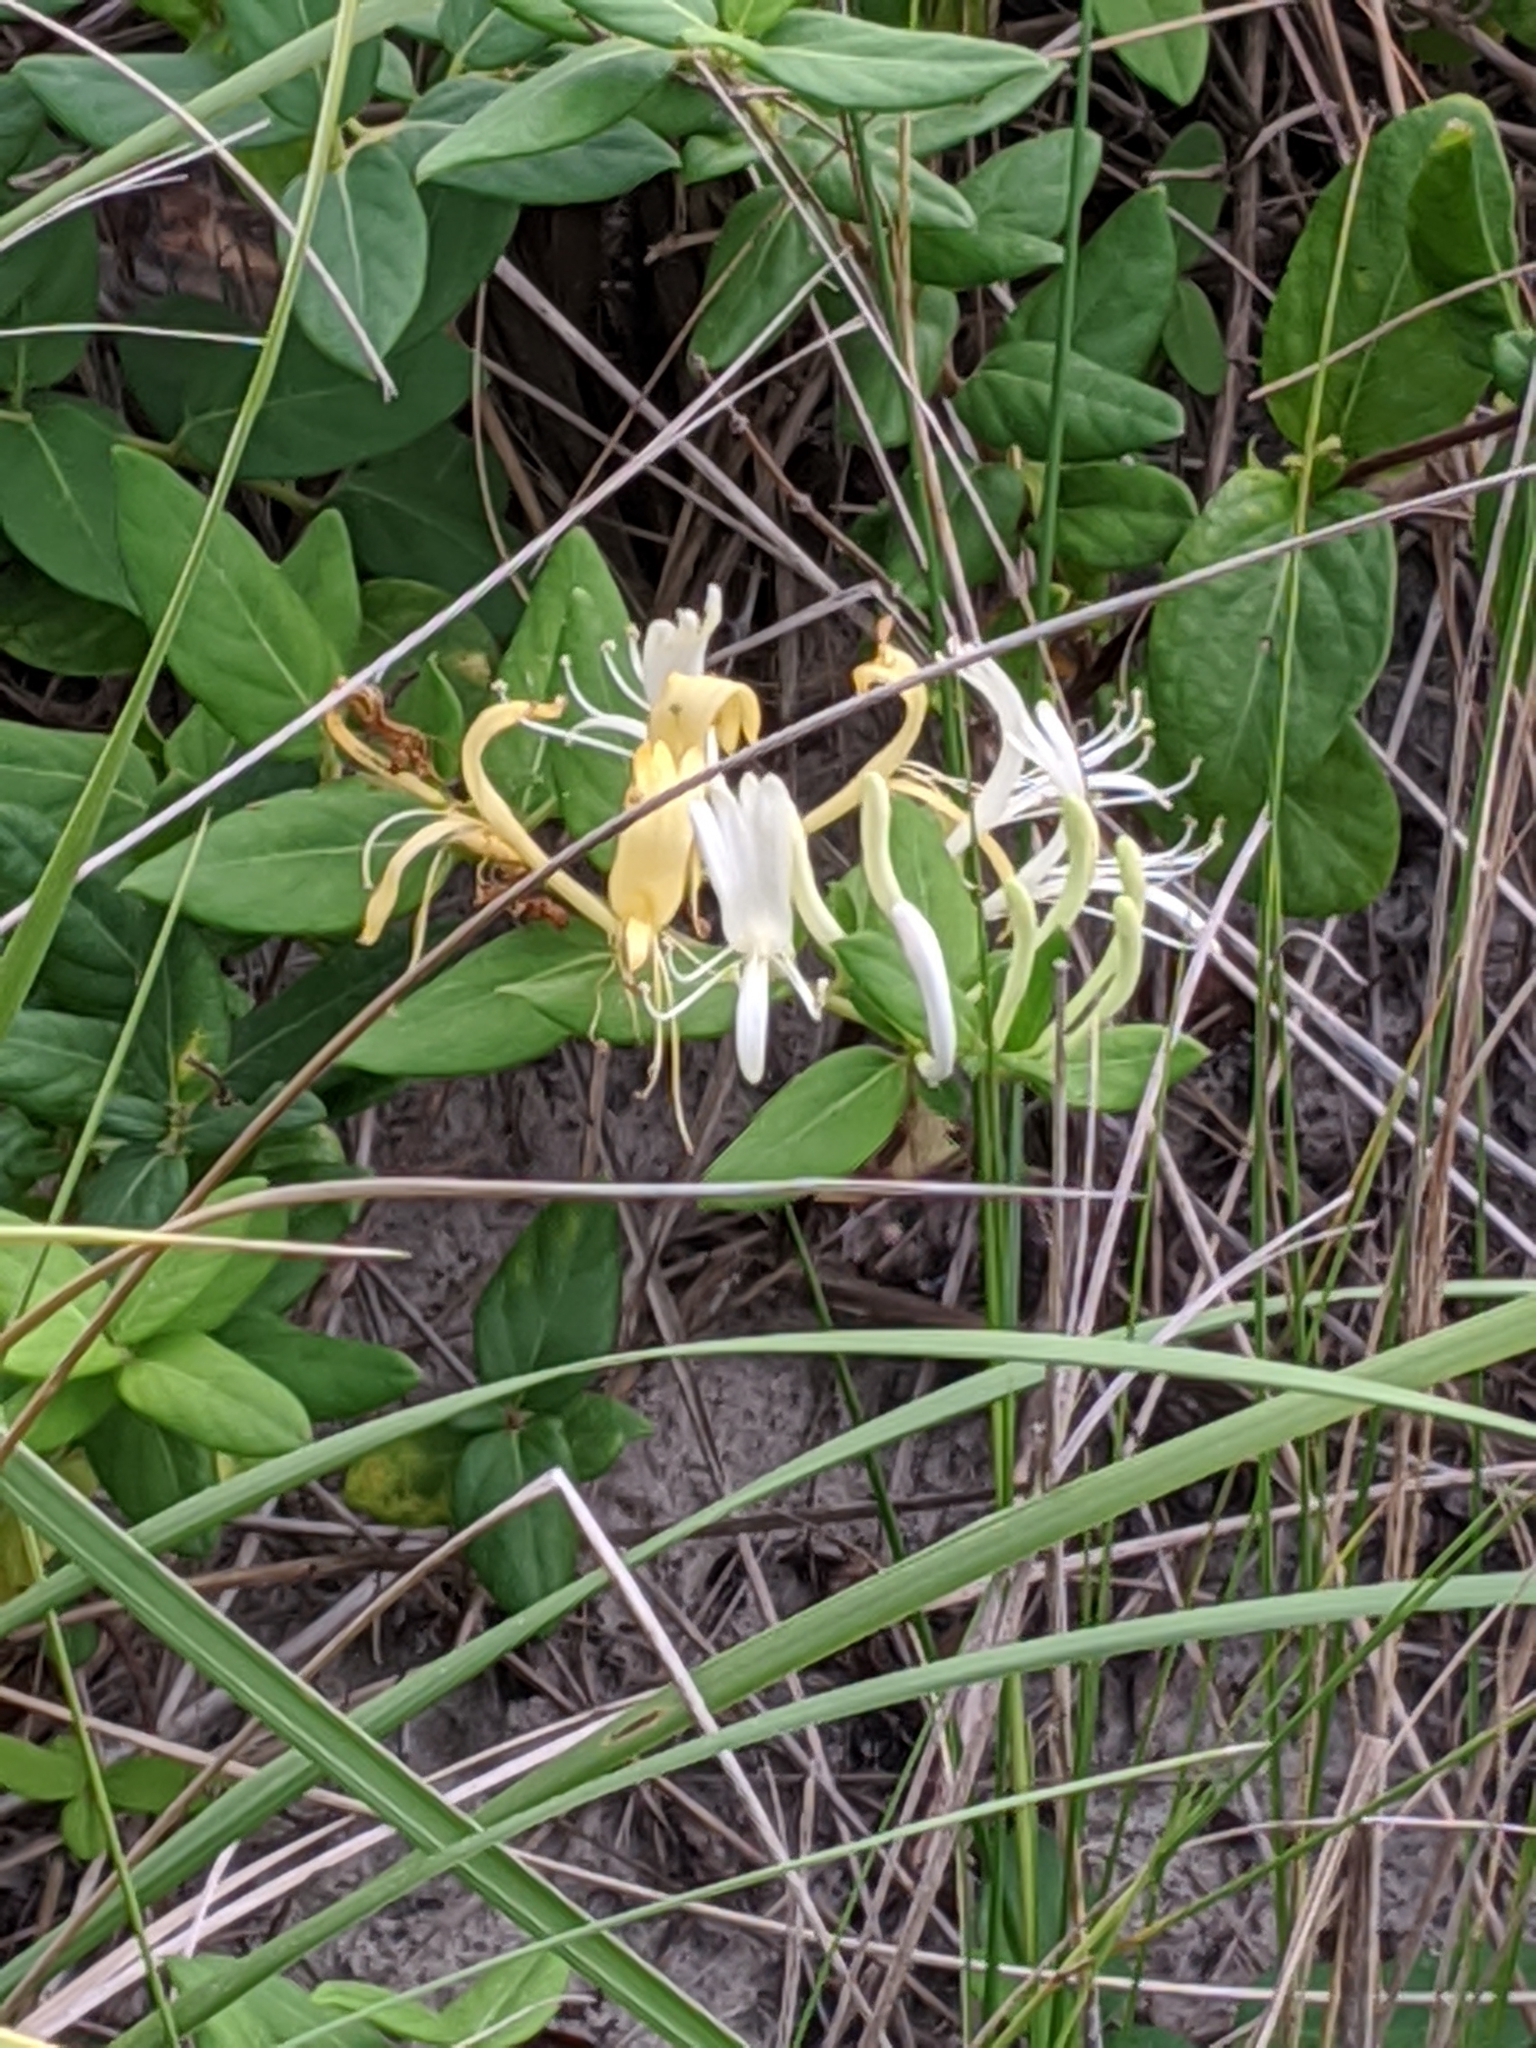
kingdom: Plantae
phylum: Tracheophyta
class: Magnoliopsida
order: Dipsacales
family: Caprifoliaceae
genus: Lonicera
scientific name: Lonicera japonica
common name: Japanese honeysuckle
